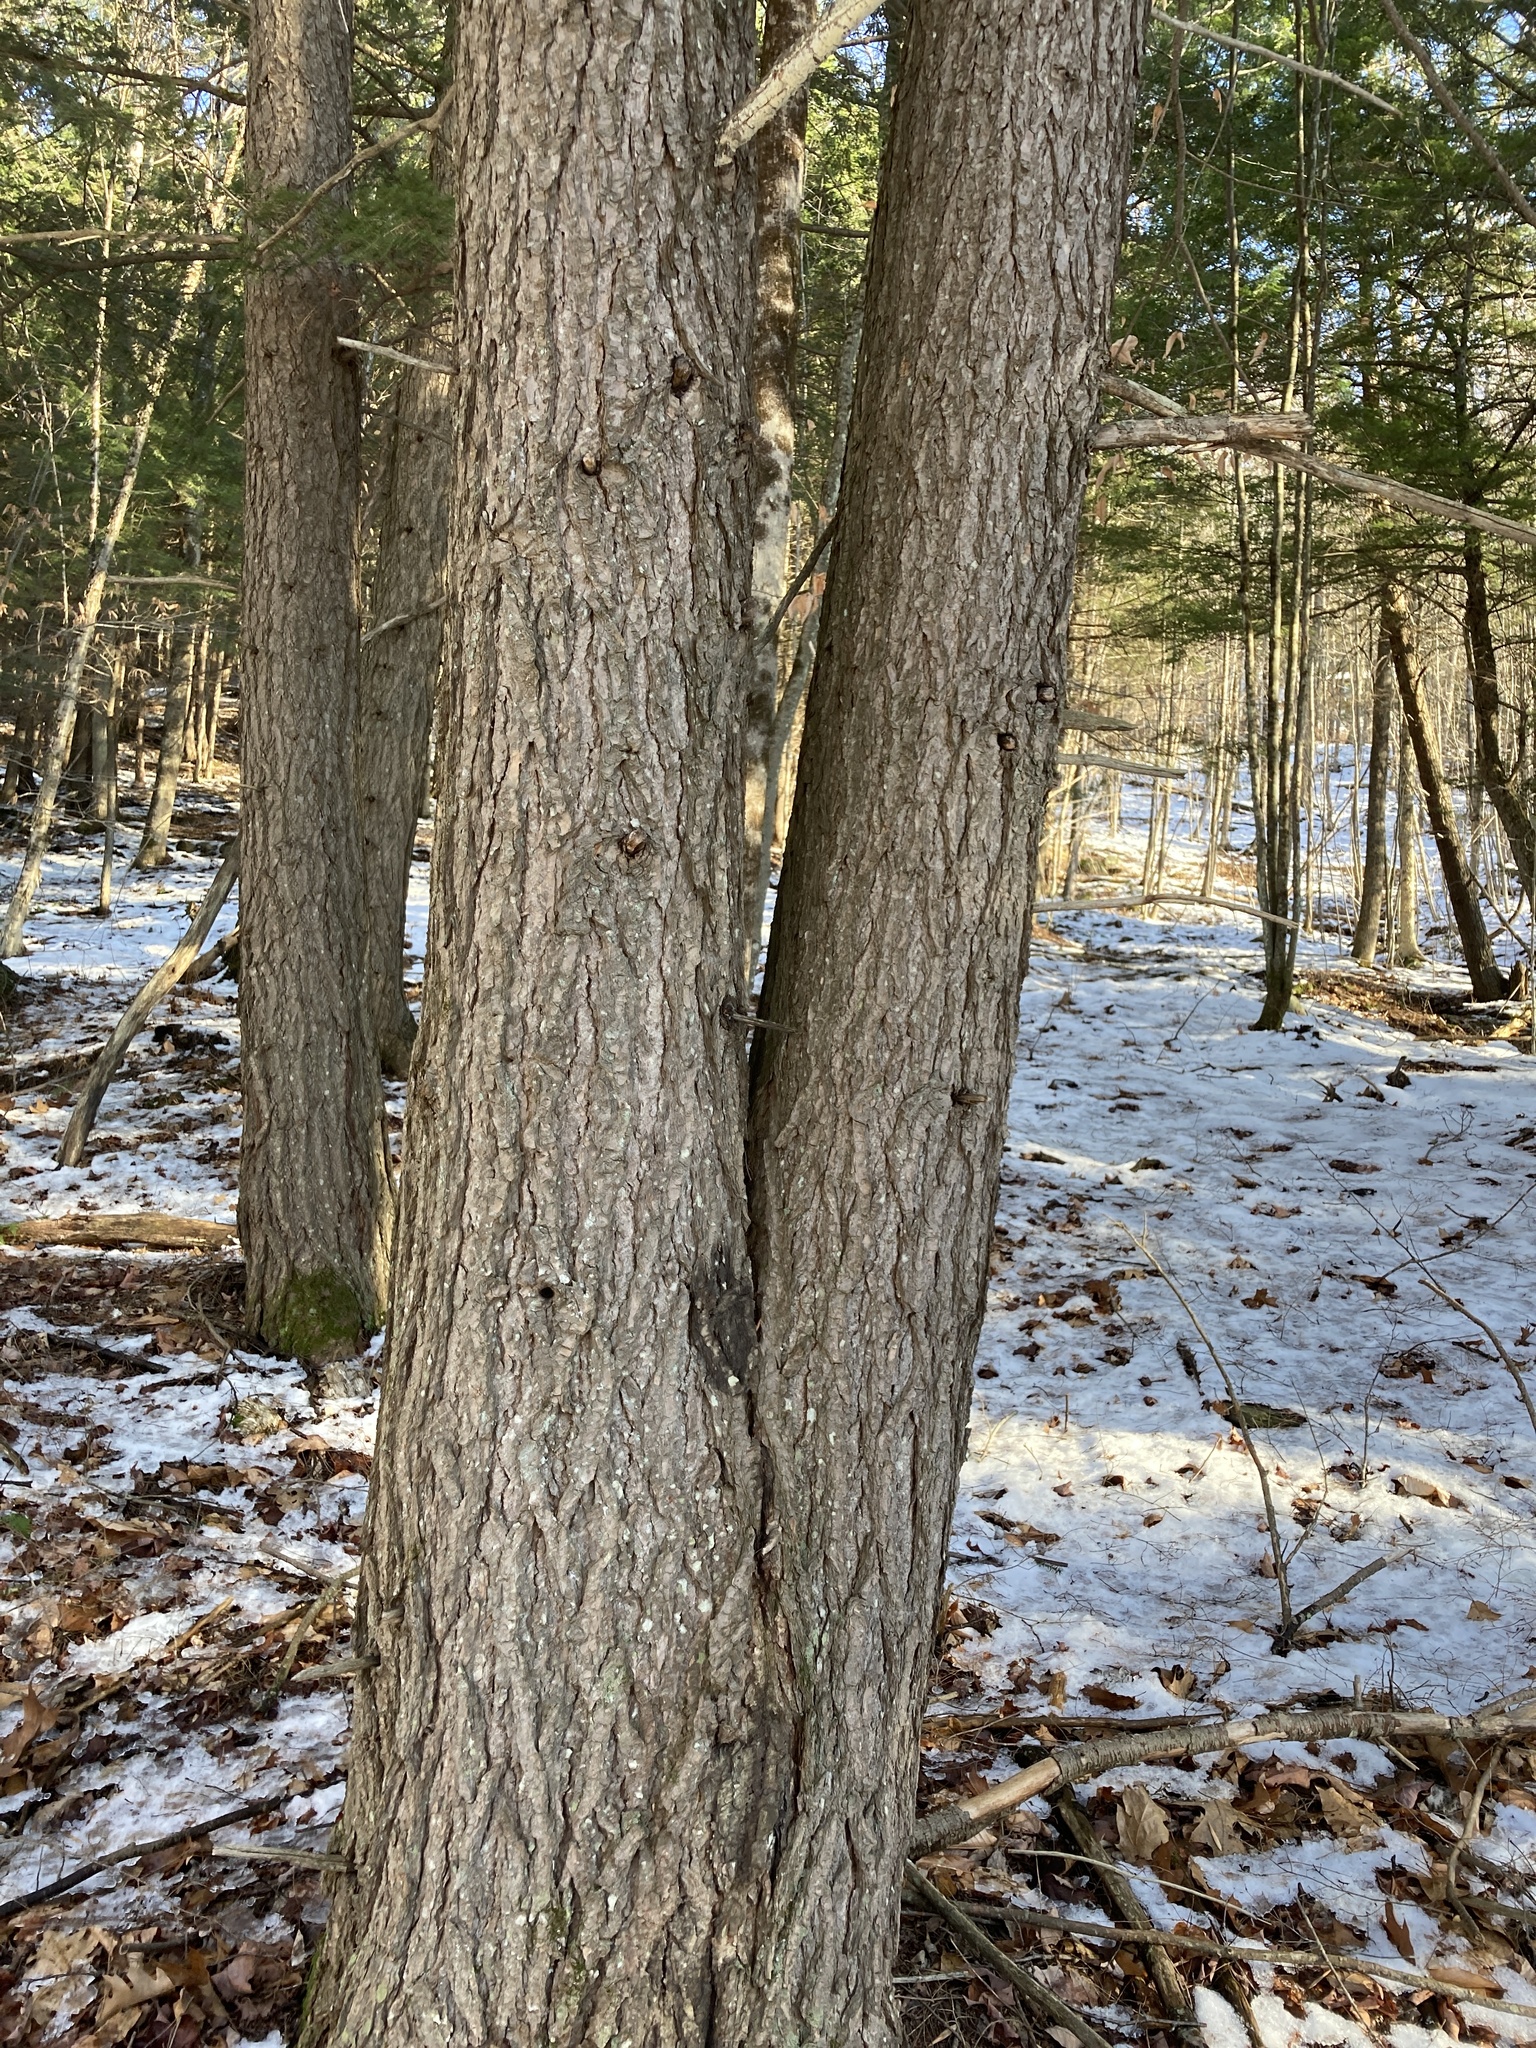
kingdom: Plantae
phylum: Tracheophyta
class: Pinopsida
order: Pinales
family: Pinaceae
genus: Tsuga
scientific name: Tsuga canadensis
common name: Eastern hemlock
